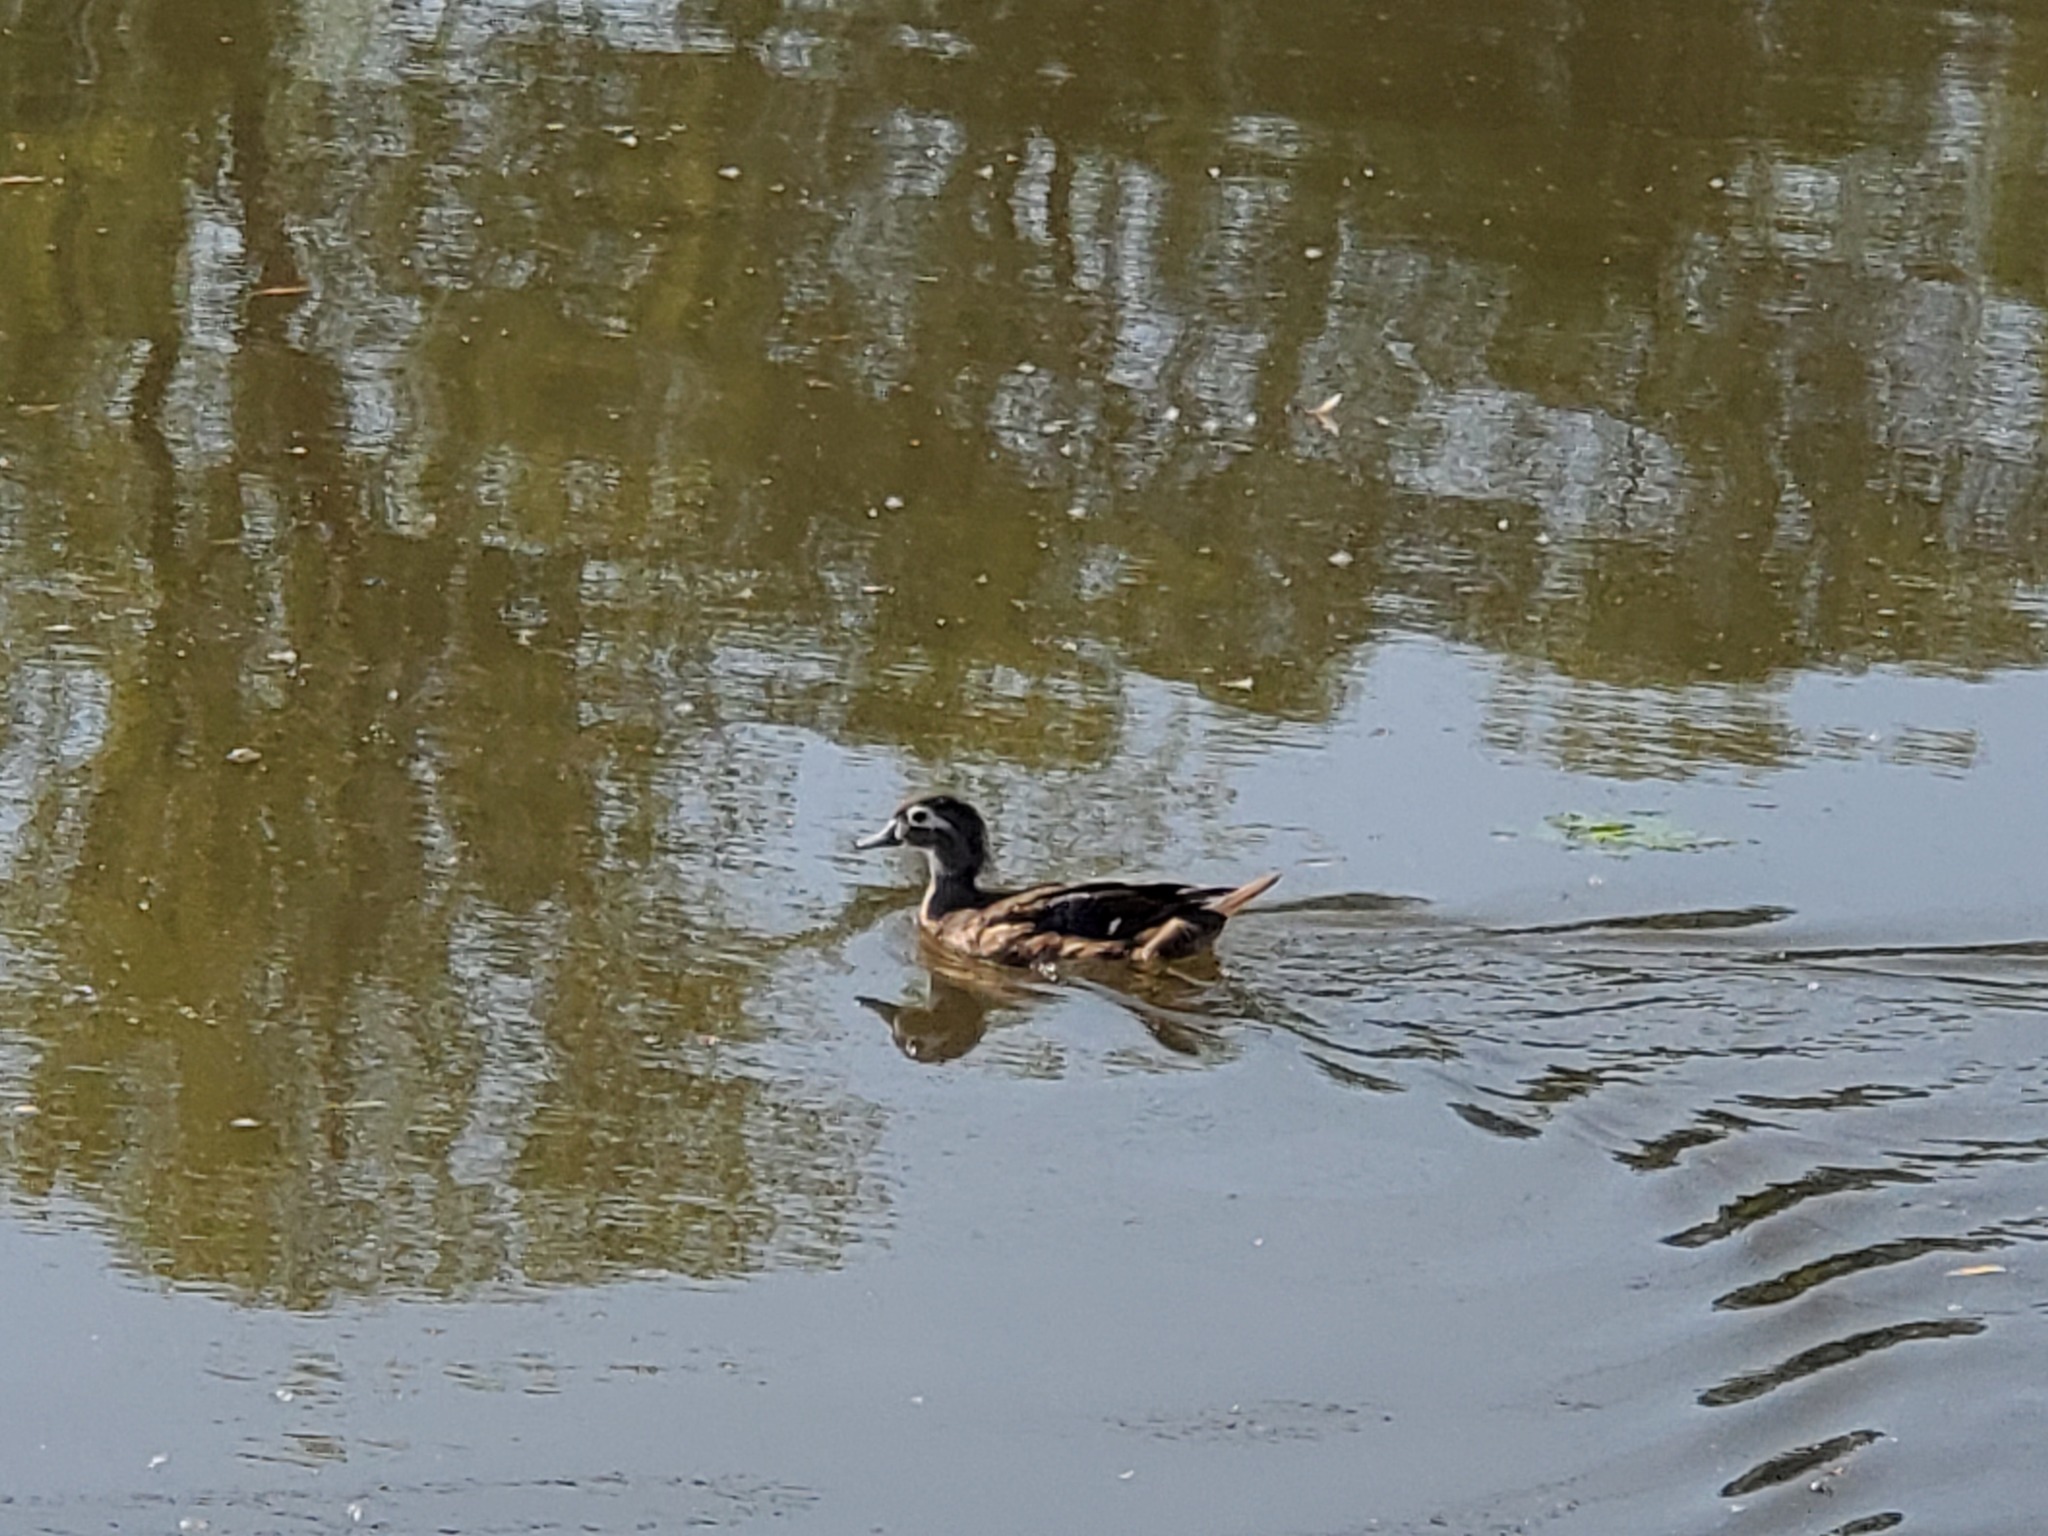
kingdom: Animalia
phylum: Chordata
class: Aves
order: Anseriformes
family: Anatidae
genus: Aix
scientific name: Aix sponsa
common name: Wood duck
